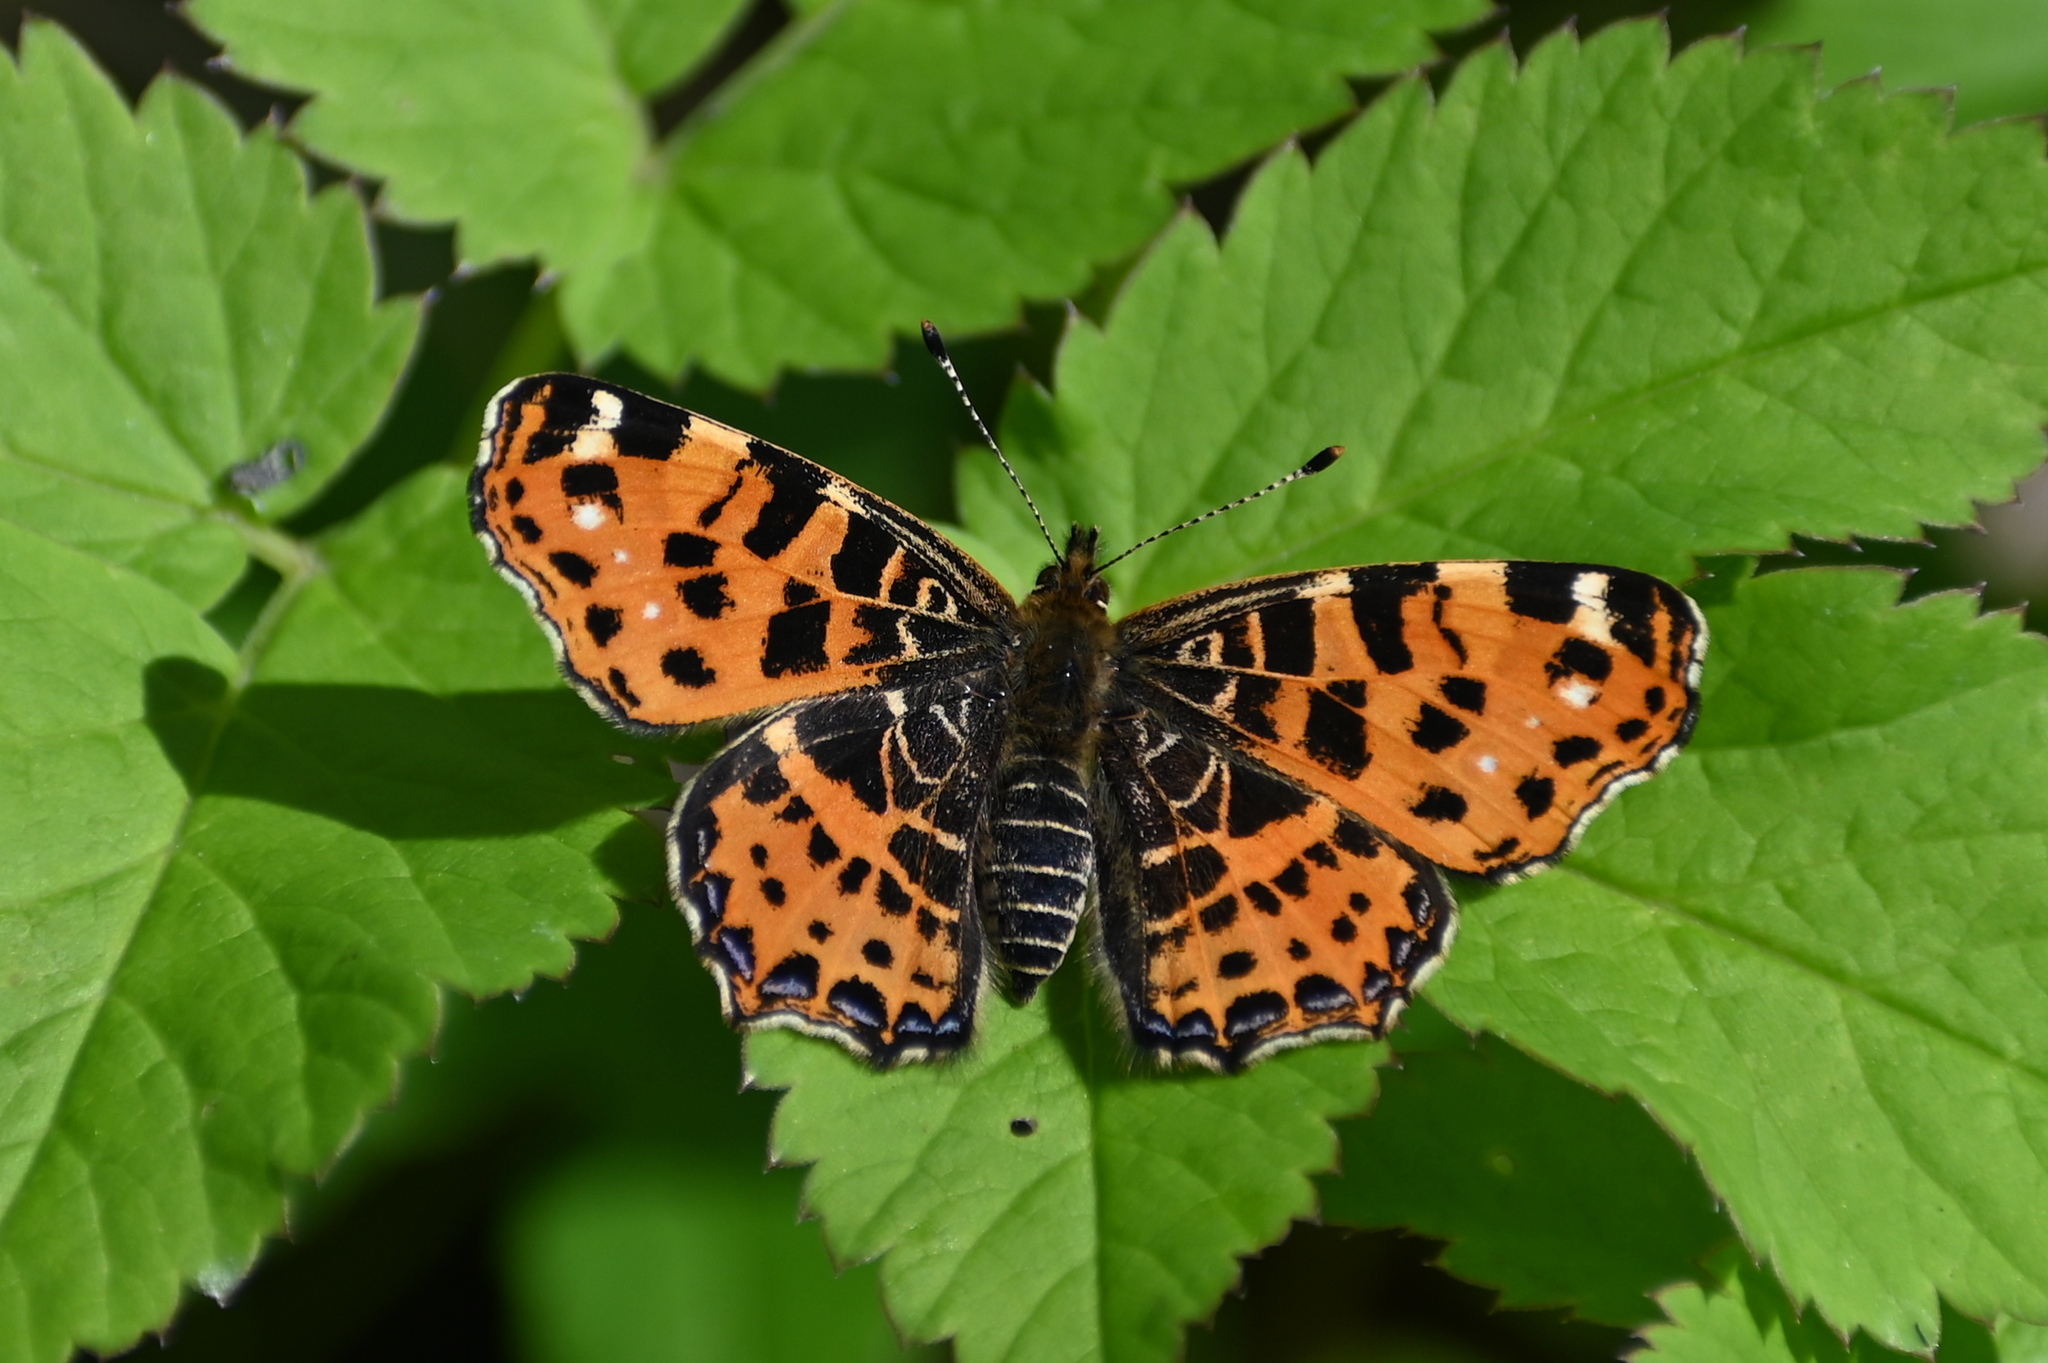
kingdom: Animalia
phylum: Arthropoda
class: Insecta
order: Lepidoptera
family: Nymphalidae
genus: Araschnia
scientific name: Araschnia levana
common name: Map butterfly
